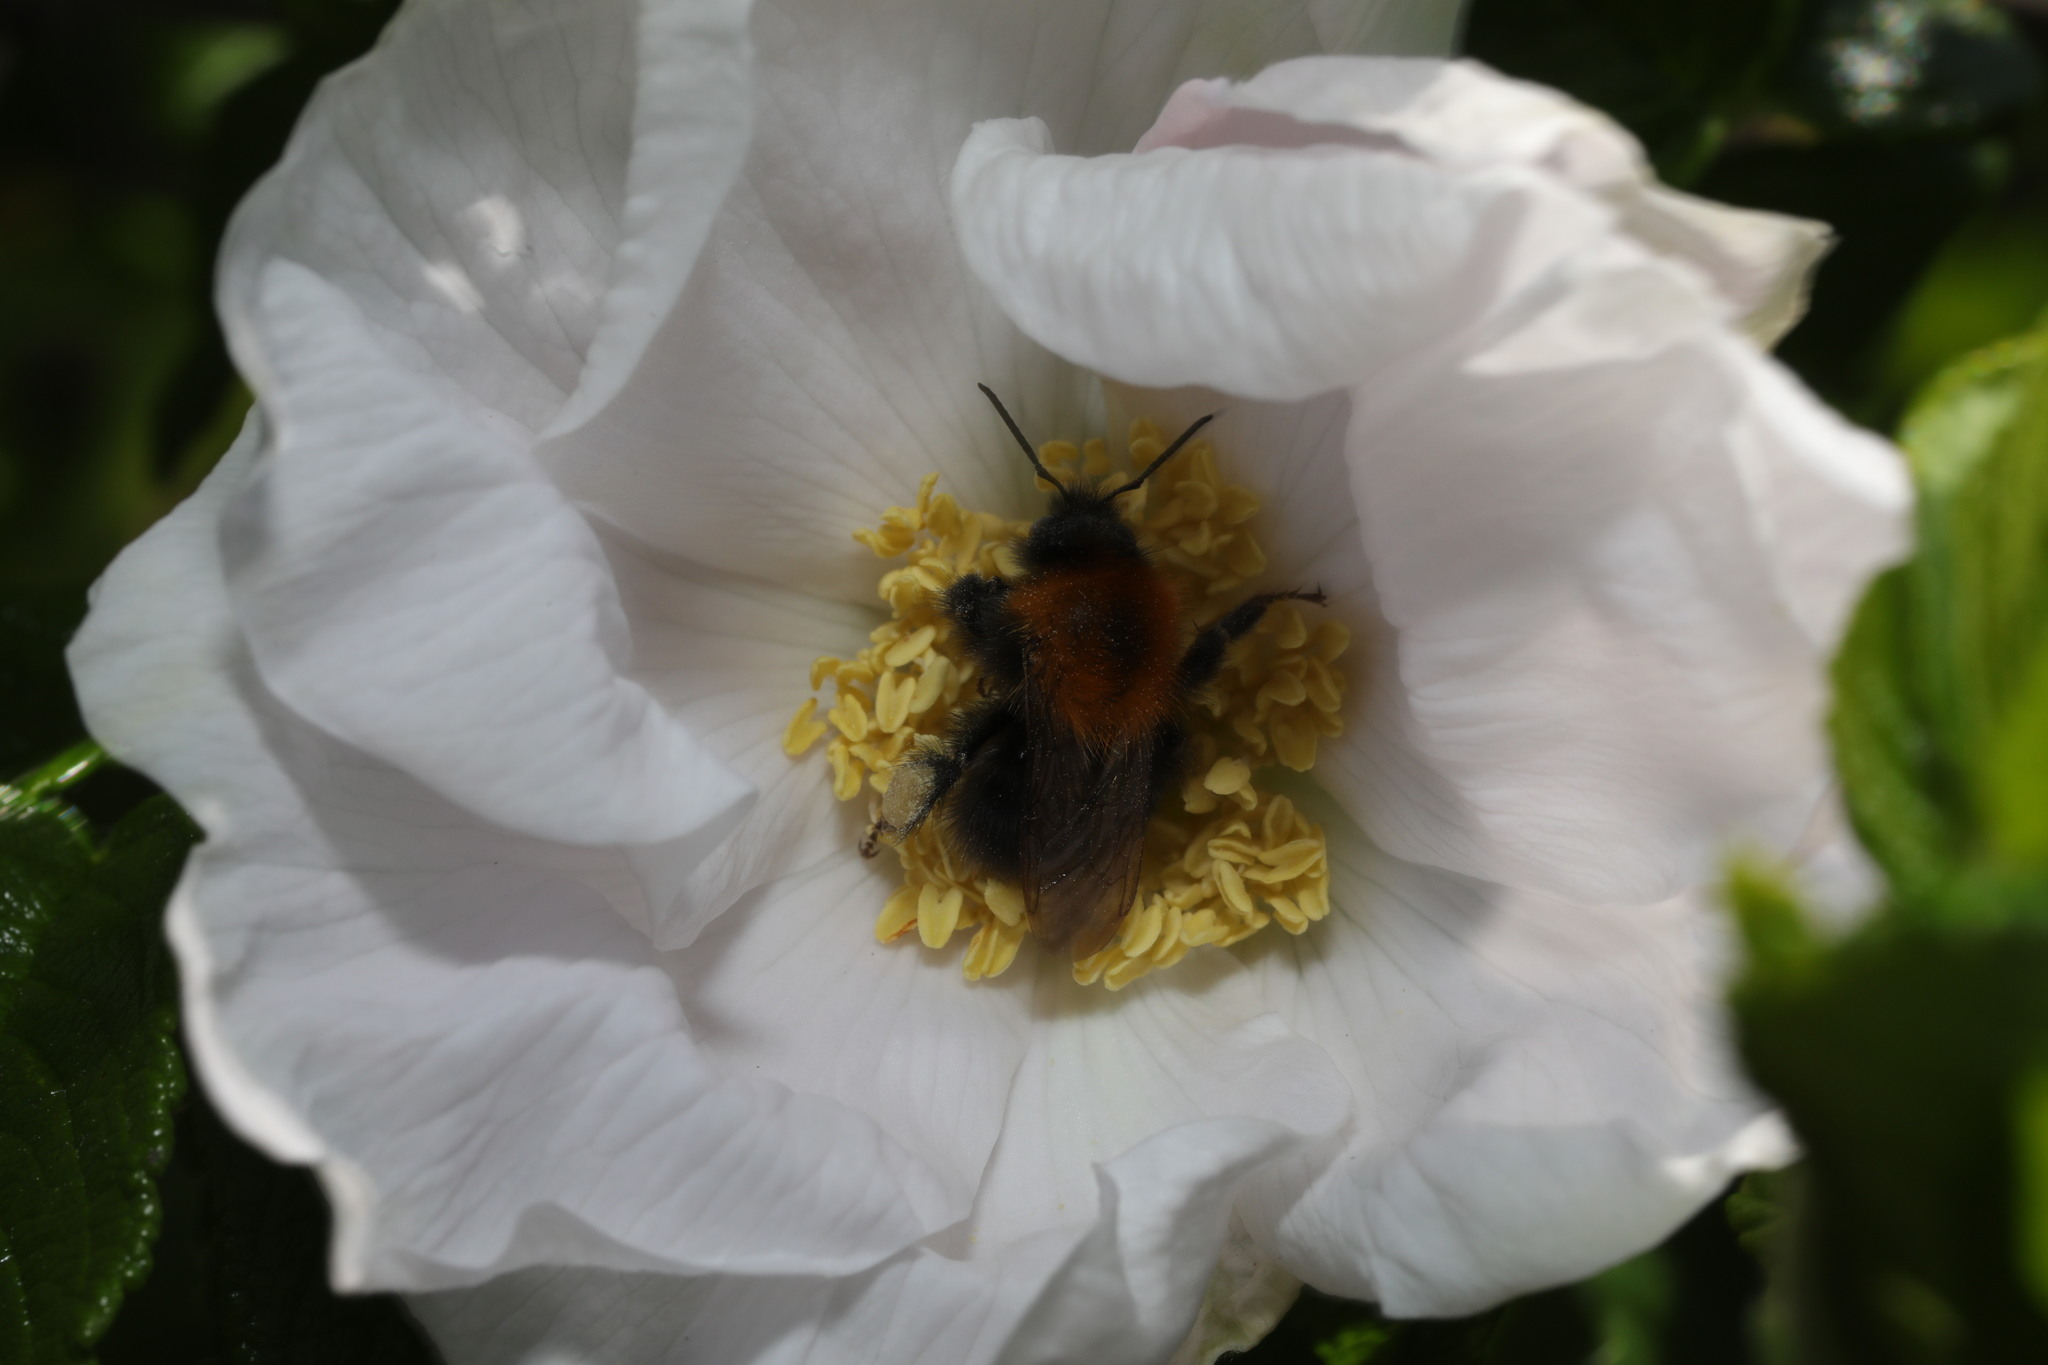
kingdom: Animalia
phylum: Arthropoda
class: Insecta
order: Hymenoptera
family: Apidae
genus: Bombus
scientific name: Bombus hypnorum
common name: New garden bumblebee
